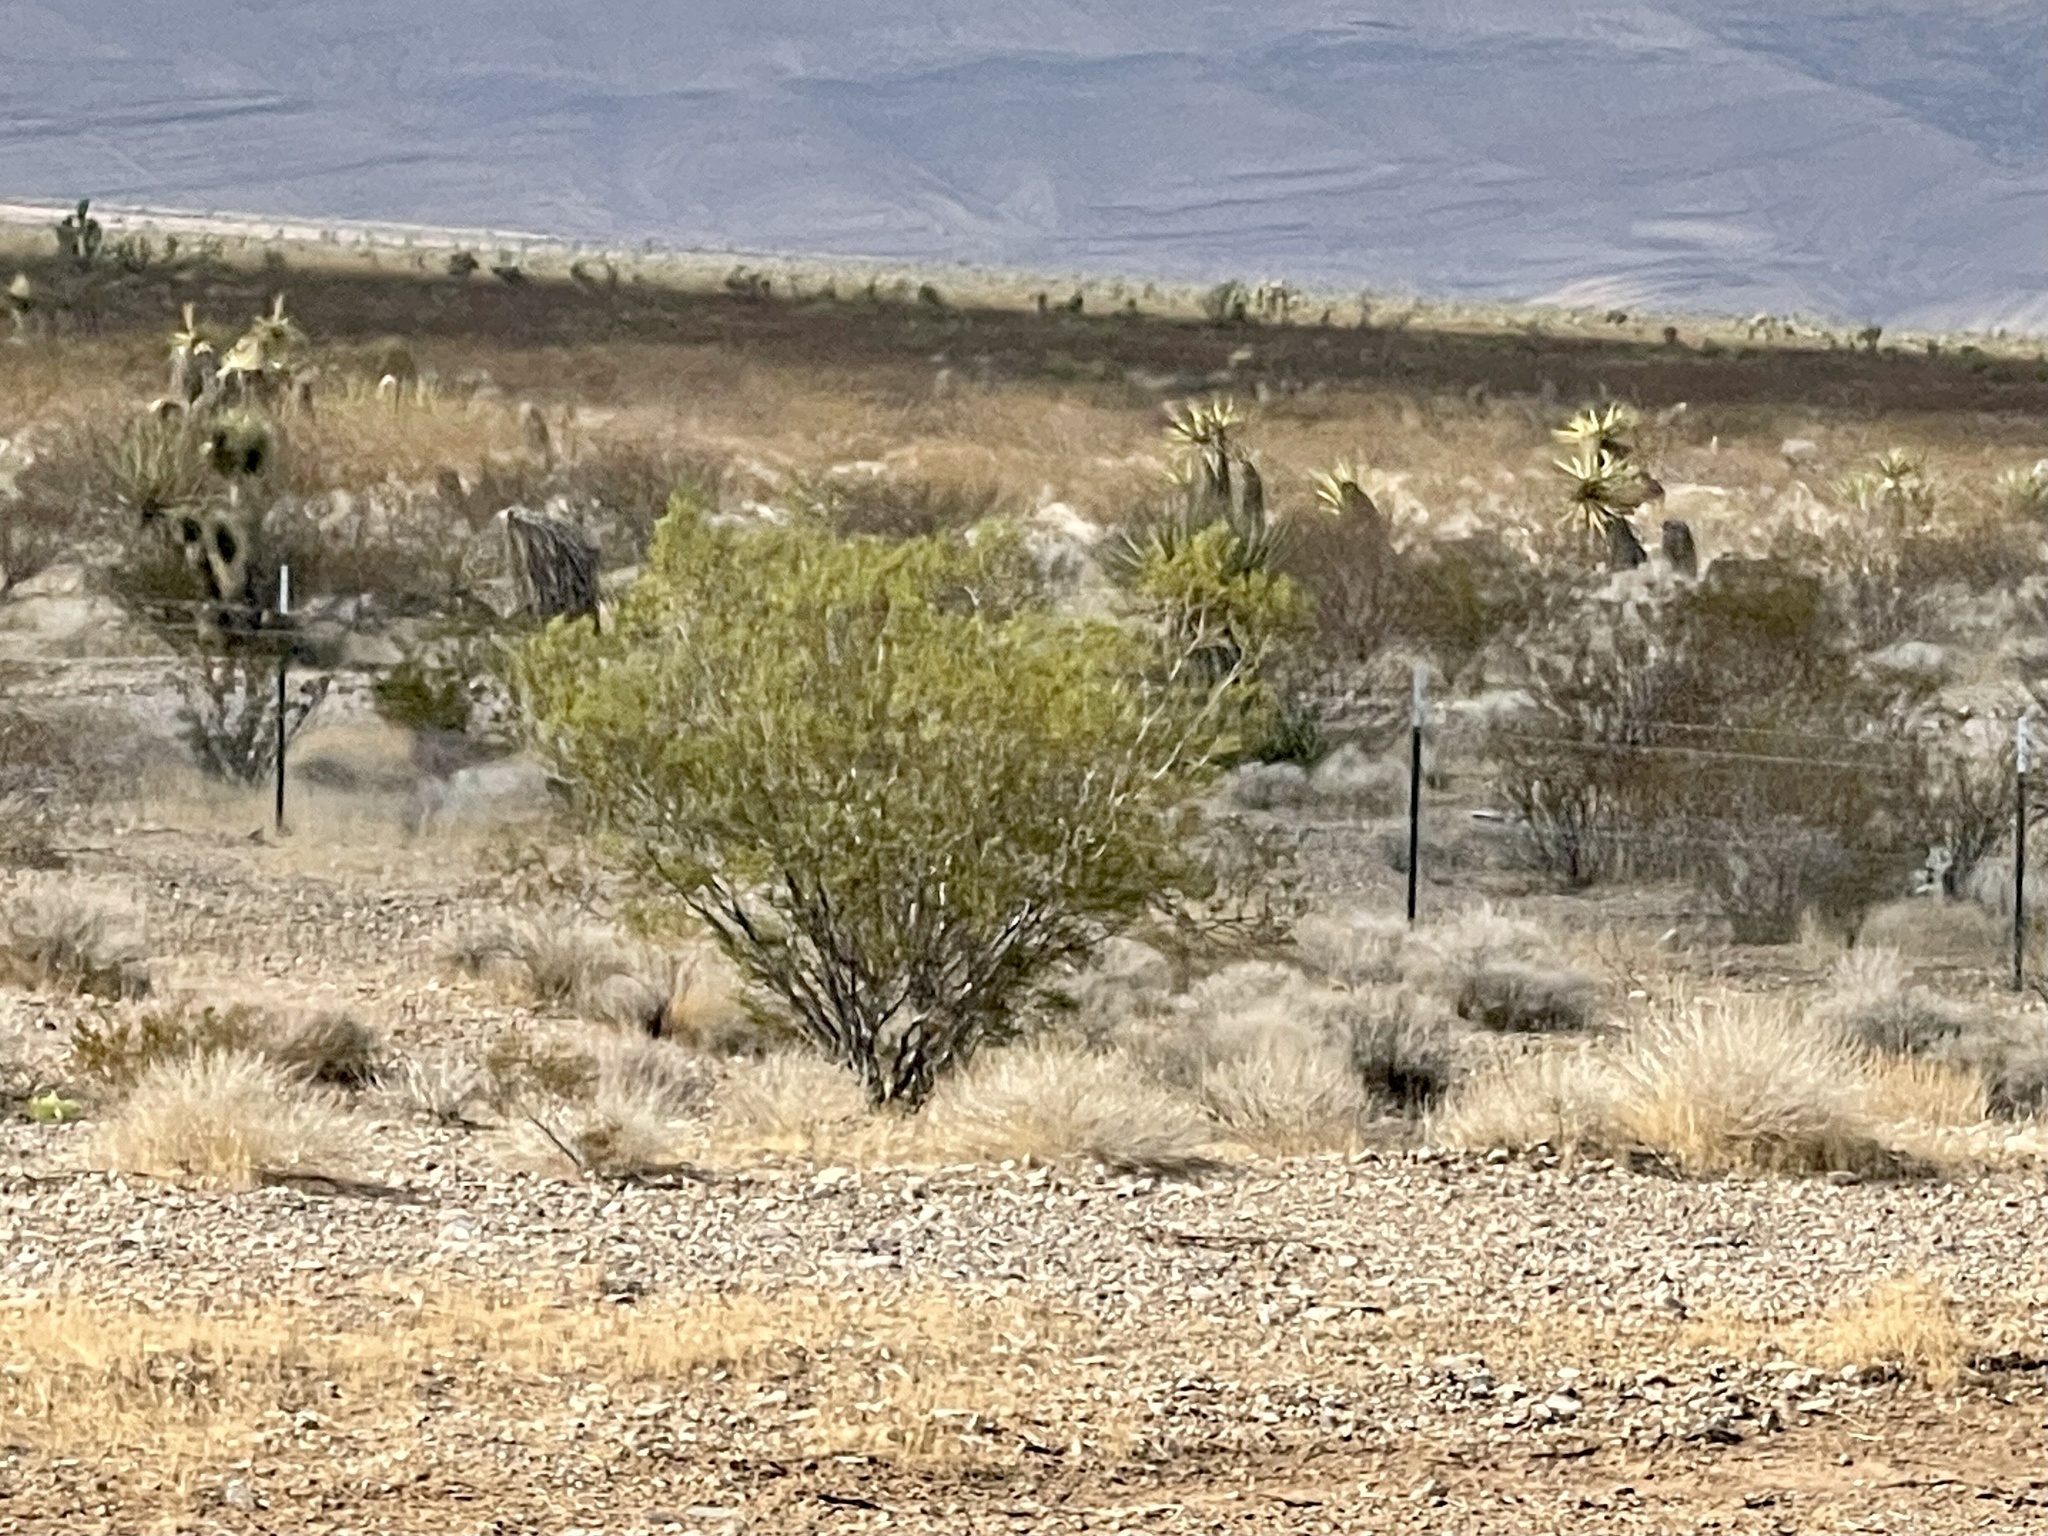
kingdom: Plantae
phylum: Tracheophyta
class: Magnoliopsida
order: Zygophyllales
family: Zygophyllaceae
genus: Larrea
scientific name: Larrea tridentata
